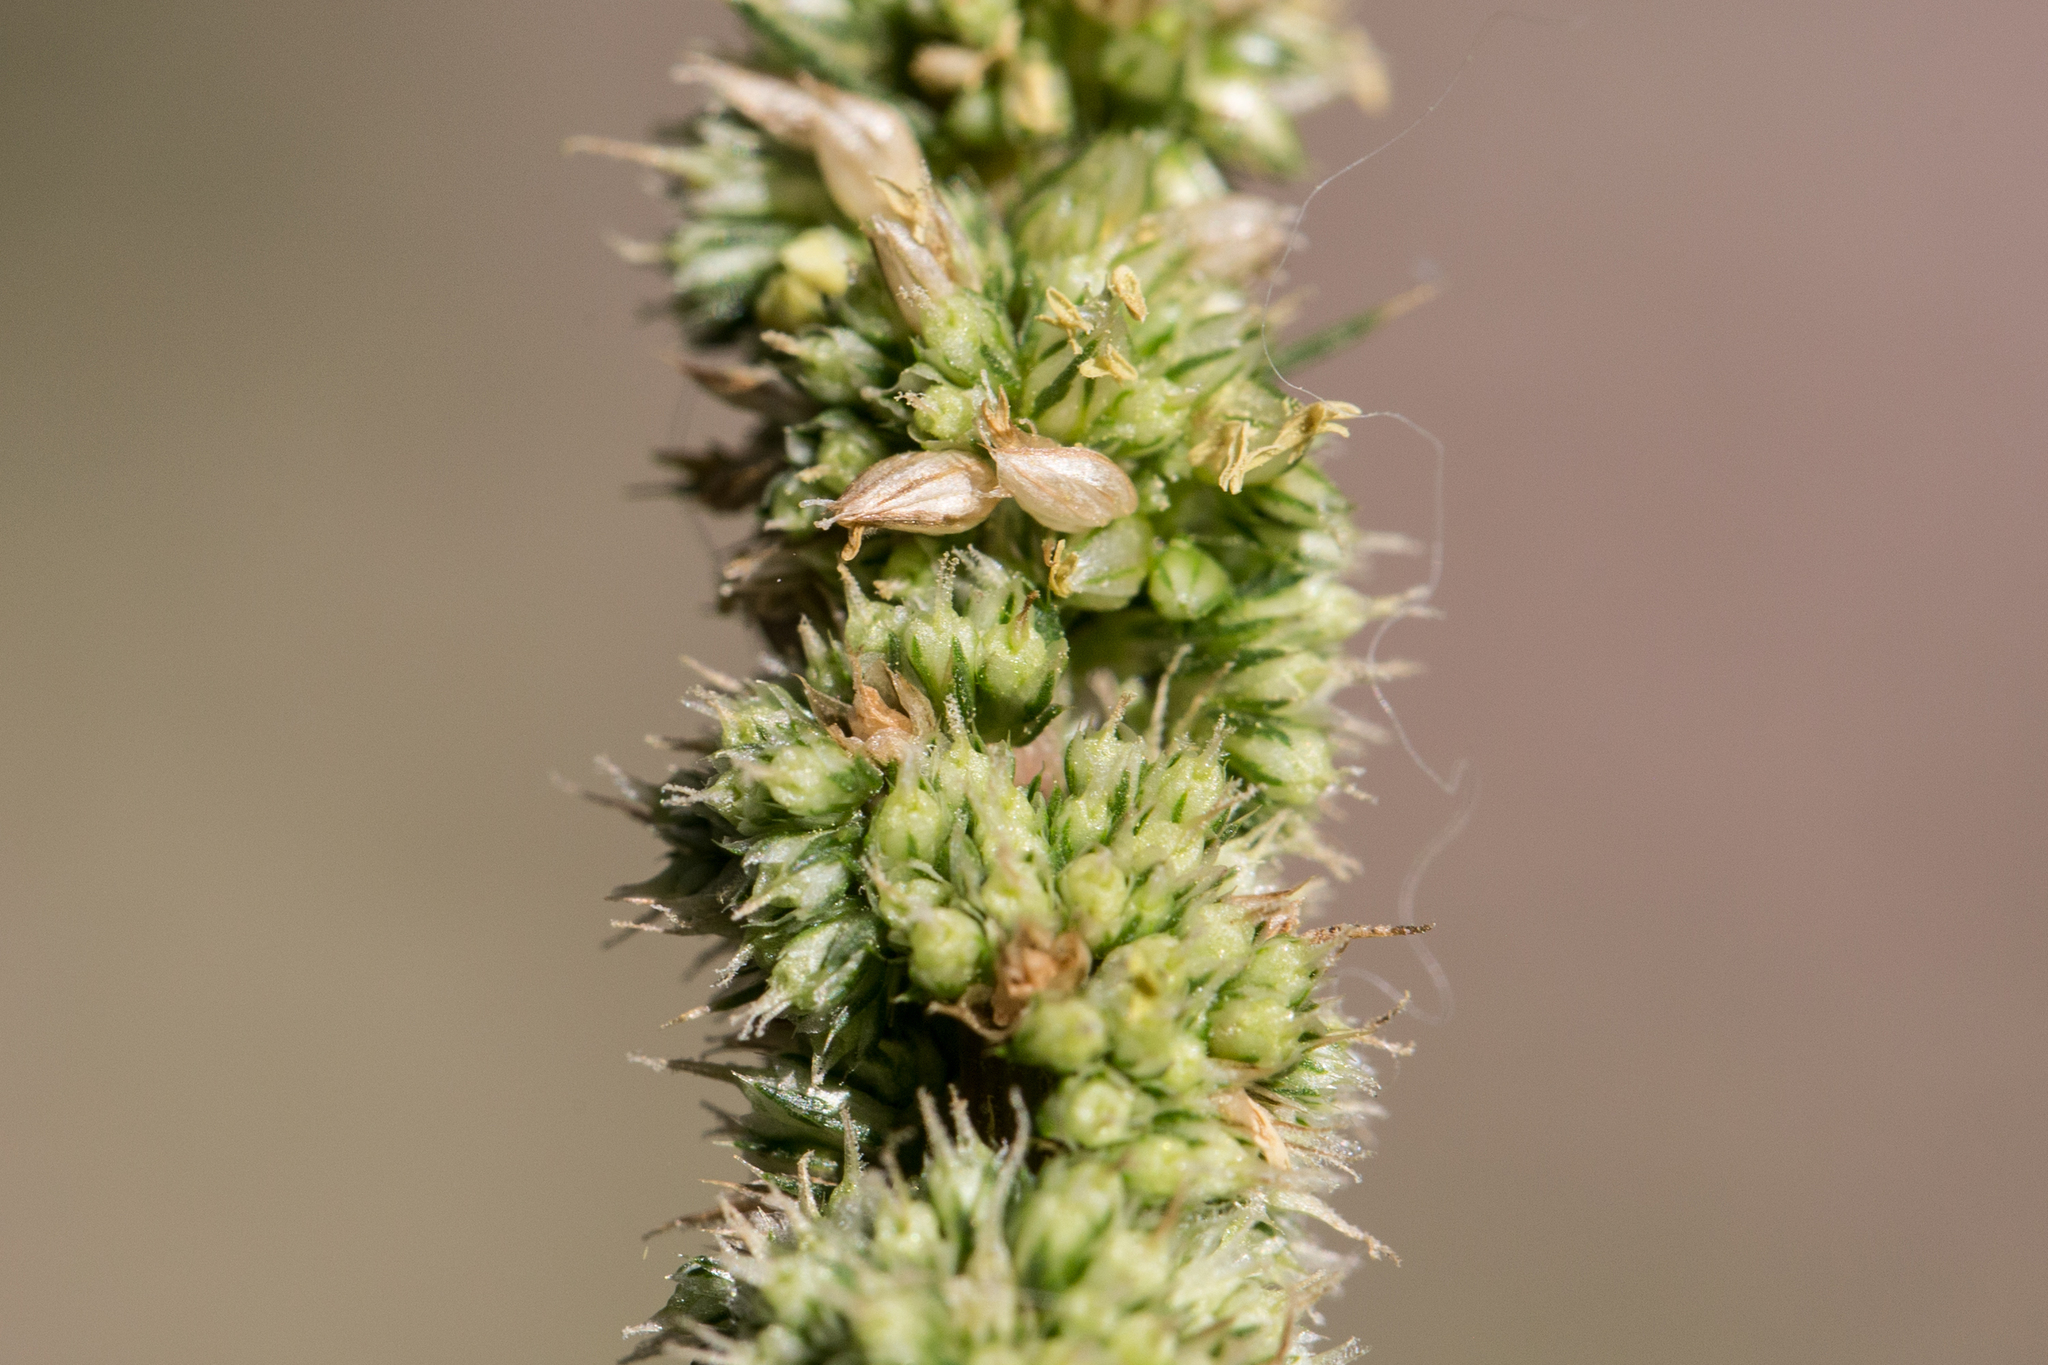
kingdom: Plantae
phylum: Tracheophyta
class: Magnoliopsida
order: Caryophyllales
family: Amaranthaceae
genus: Amaranthus
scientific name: Amaranthus spinosus
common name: Spiny amaranth
